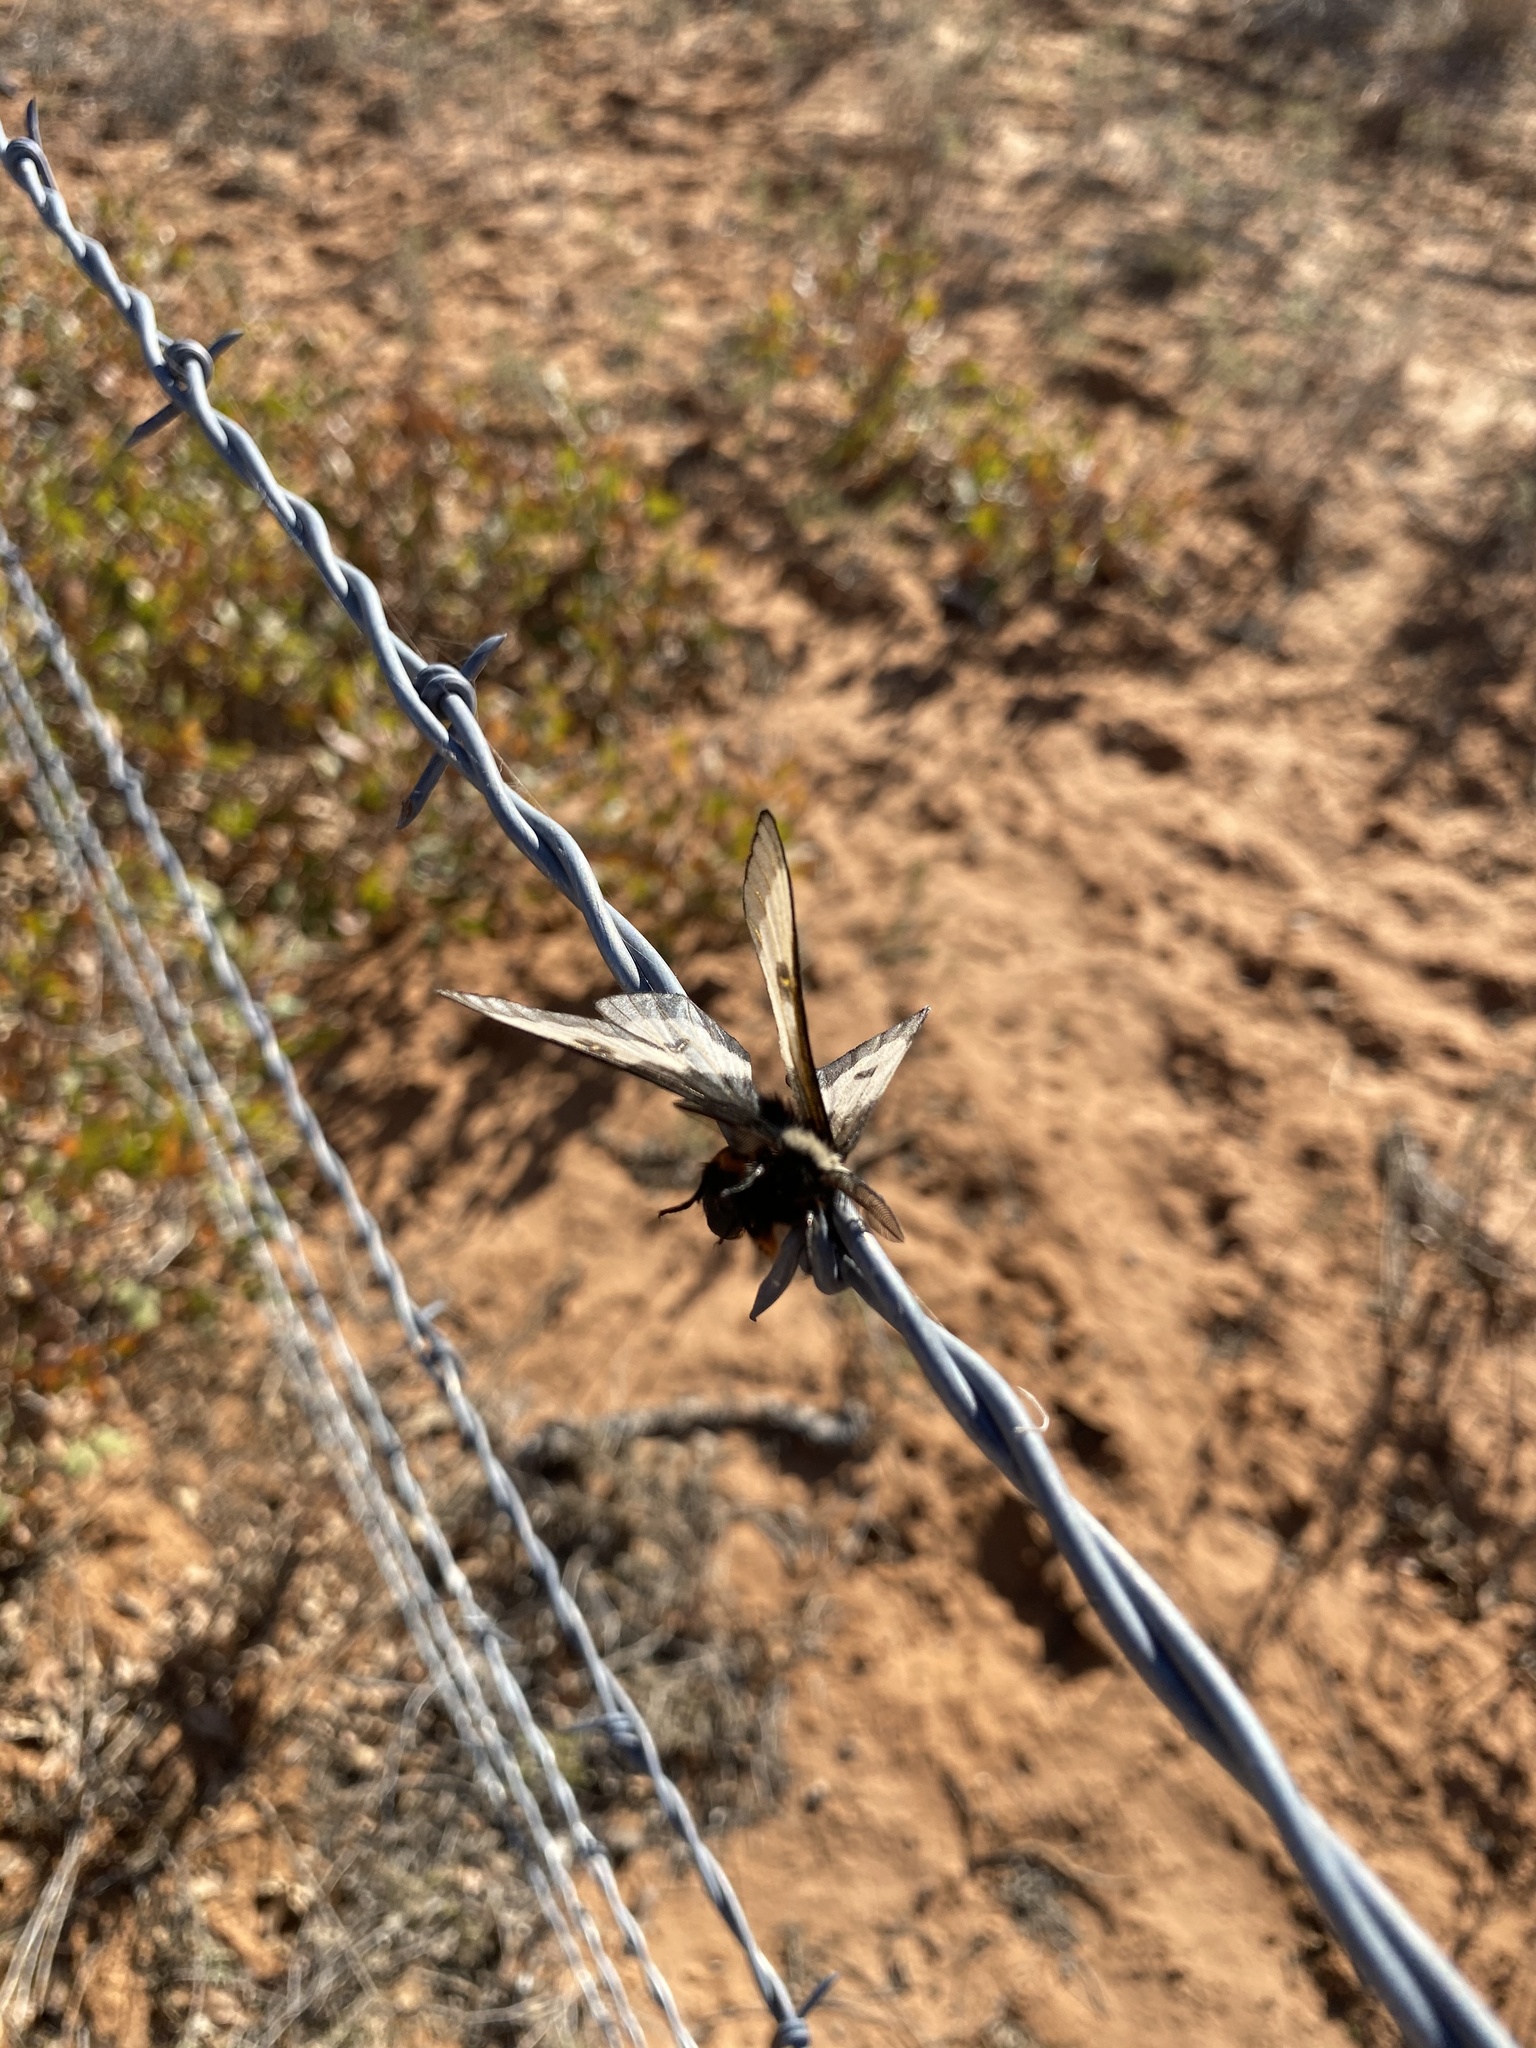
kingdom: Animalia
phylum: Arthropoda
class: Insecta
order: Lepidoptera
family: Saturniidae
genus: Hemileuca
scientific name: Hemileuca slosseri
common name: Slosser's buckmoth
